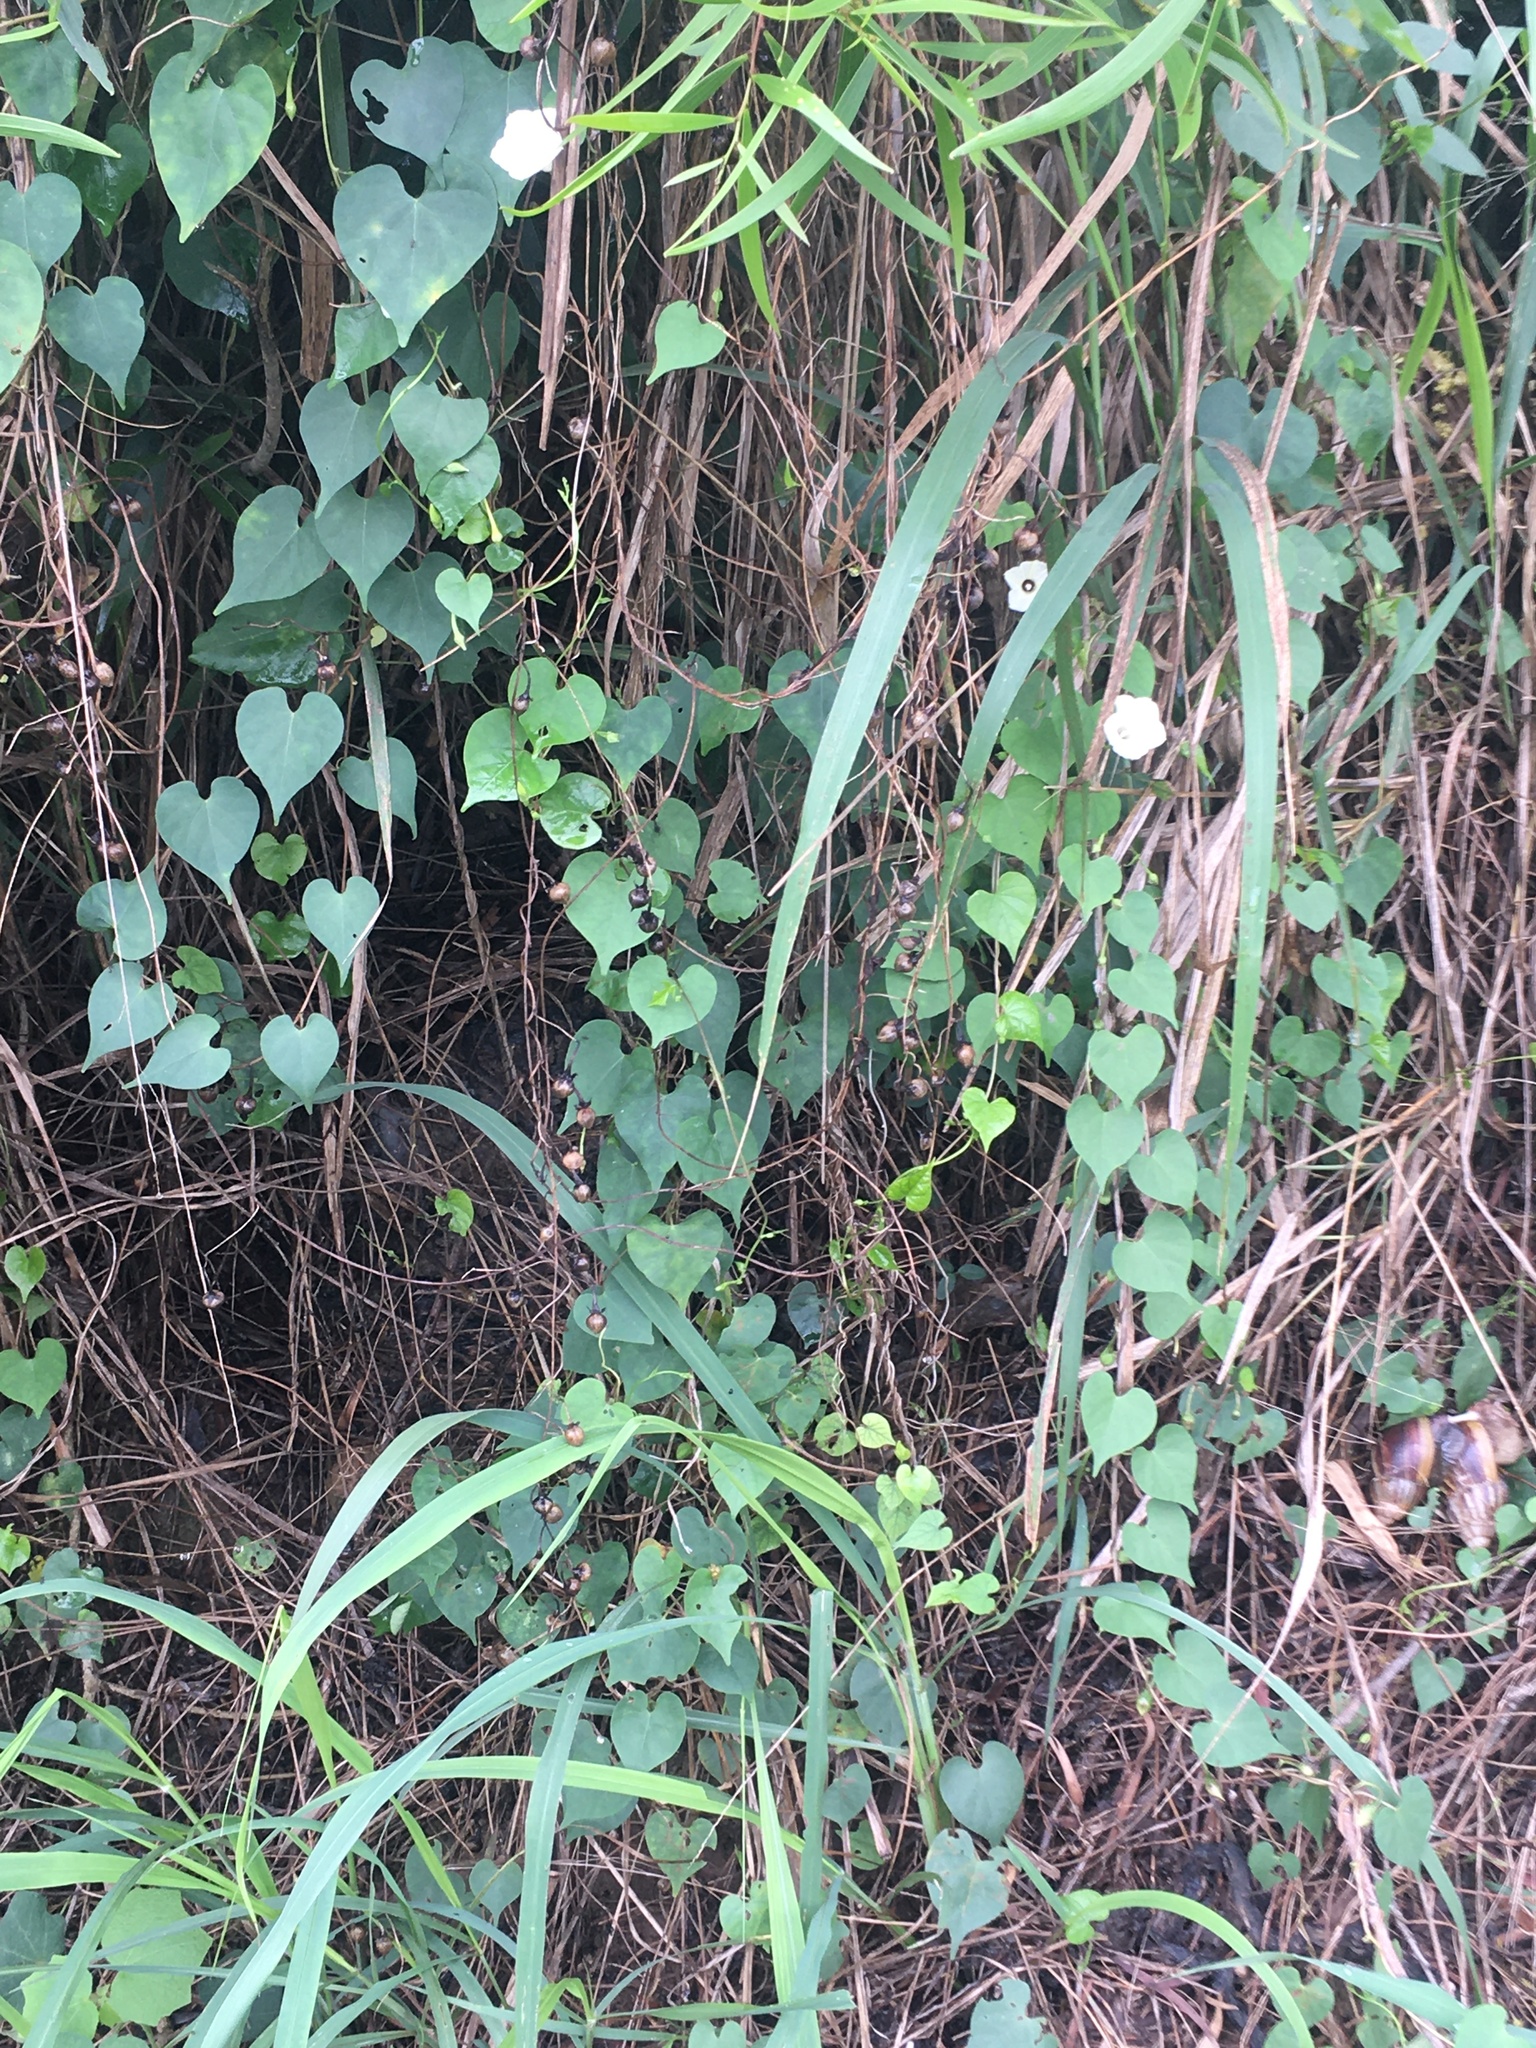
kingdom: Plantae
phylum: Tracheophyta
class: Magnoliopsida
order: Solanales
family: Convolvulaceae
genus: Ipomoea
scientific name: Ipomoea obscura
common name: Obscure morning-glory
